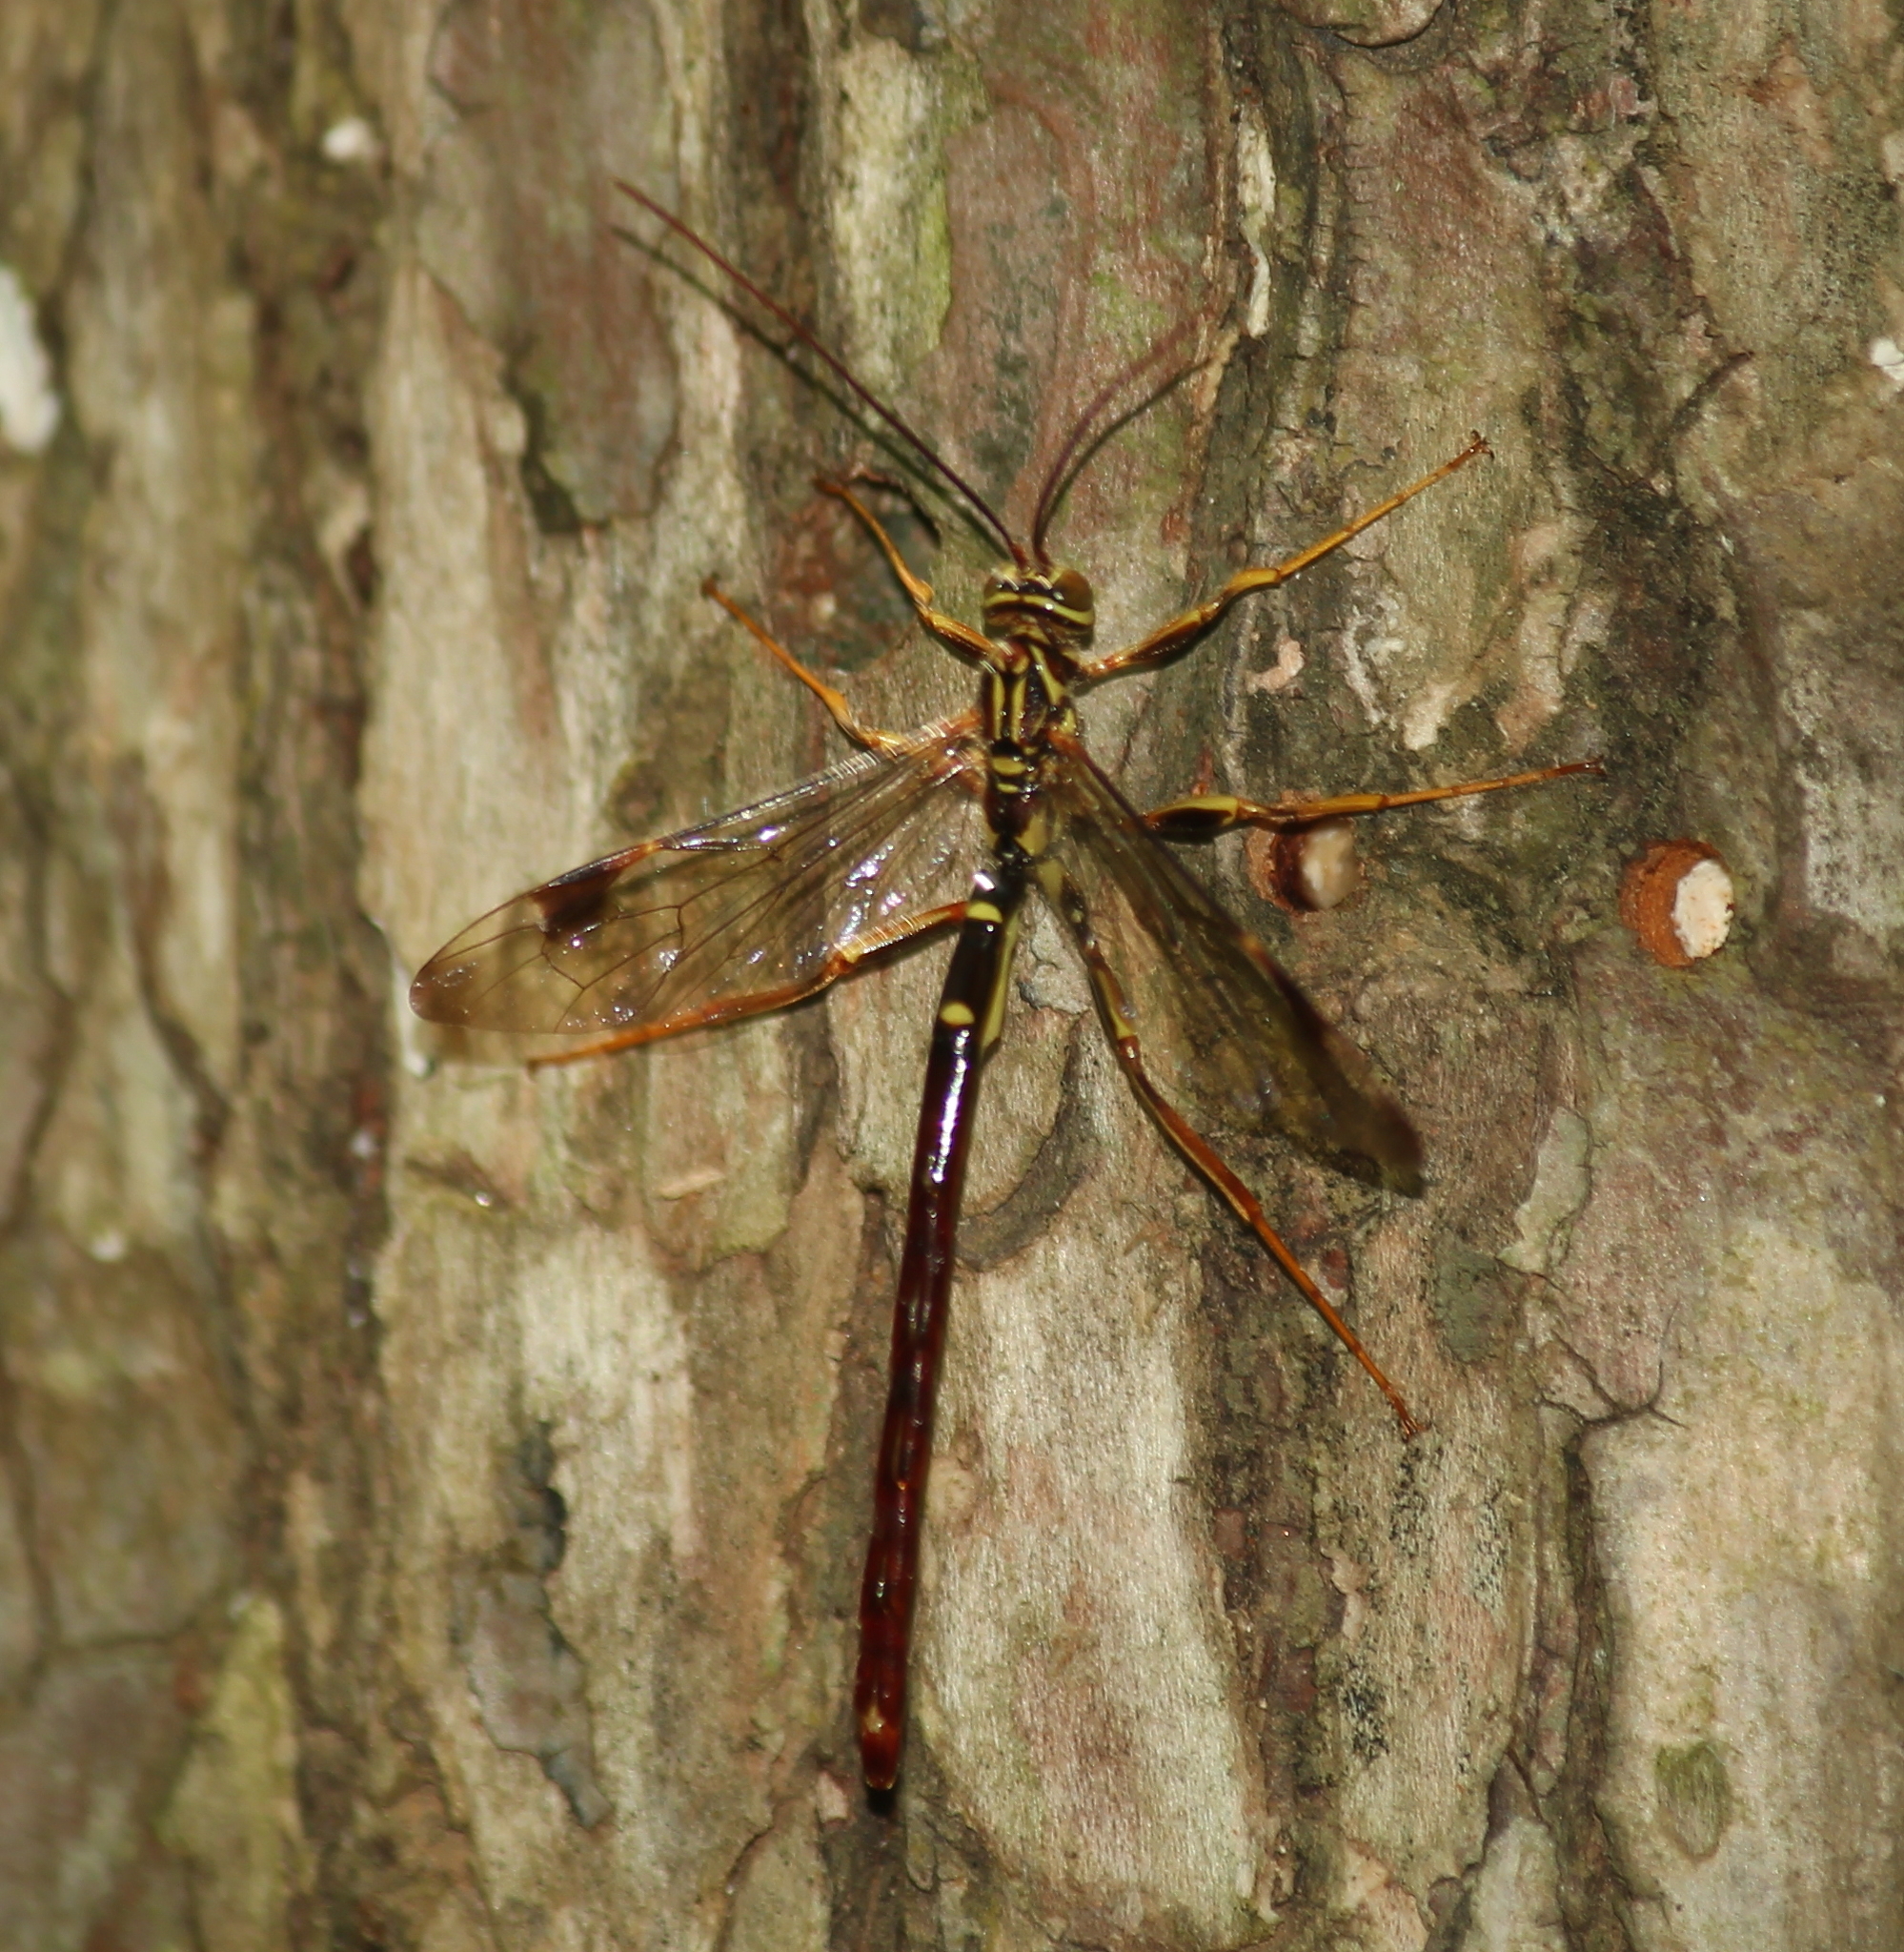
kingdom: Animalia
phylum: Arthropoda
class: Insecta
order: Hymenoptera
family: Ichneumonidae
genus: Megarhyssa
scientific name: Megarhyssa macrura
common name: Long-tailed giant ichneumonid wasp
